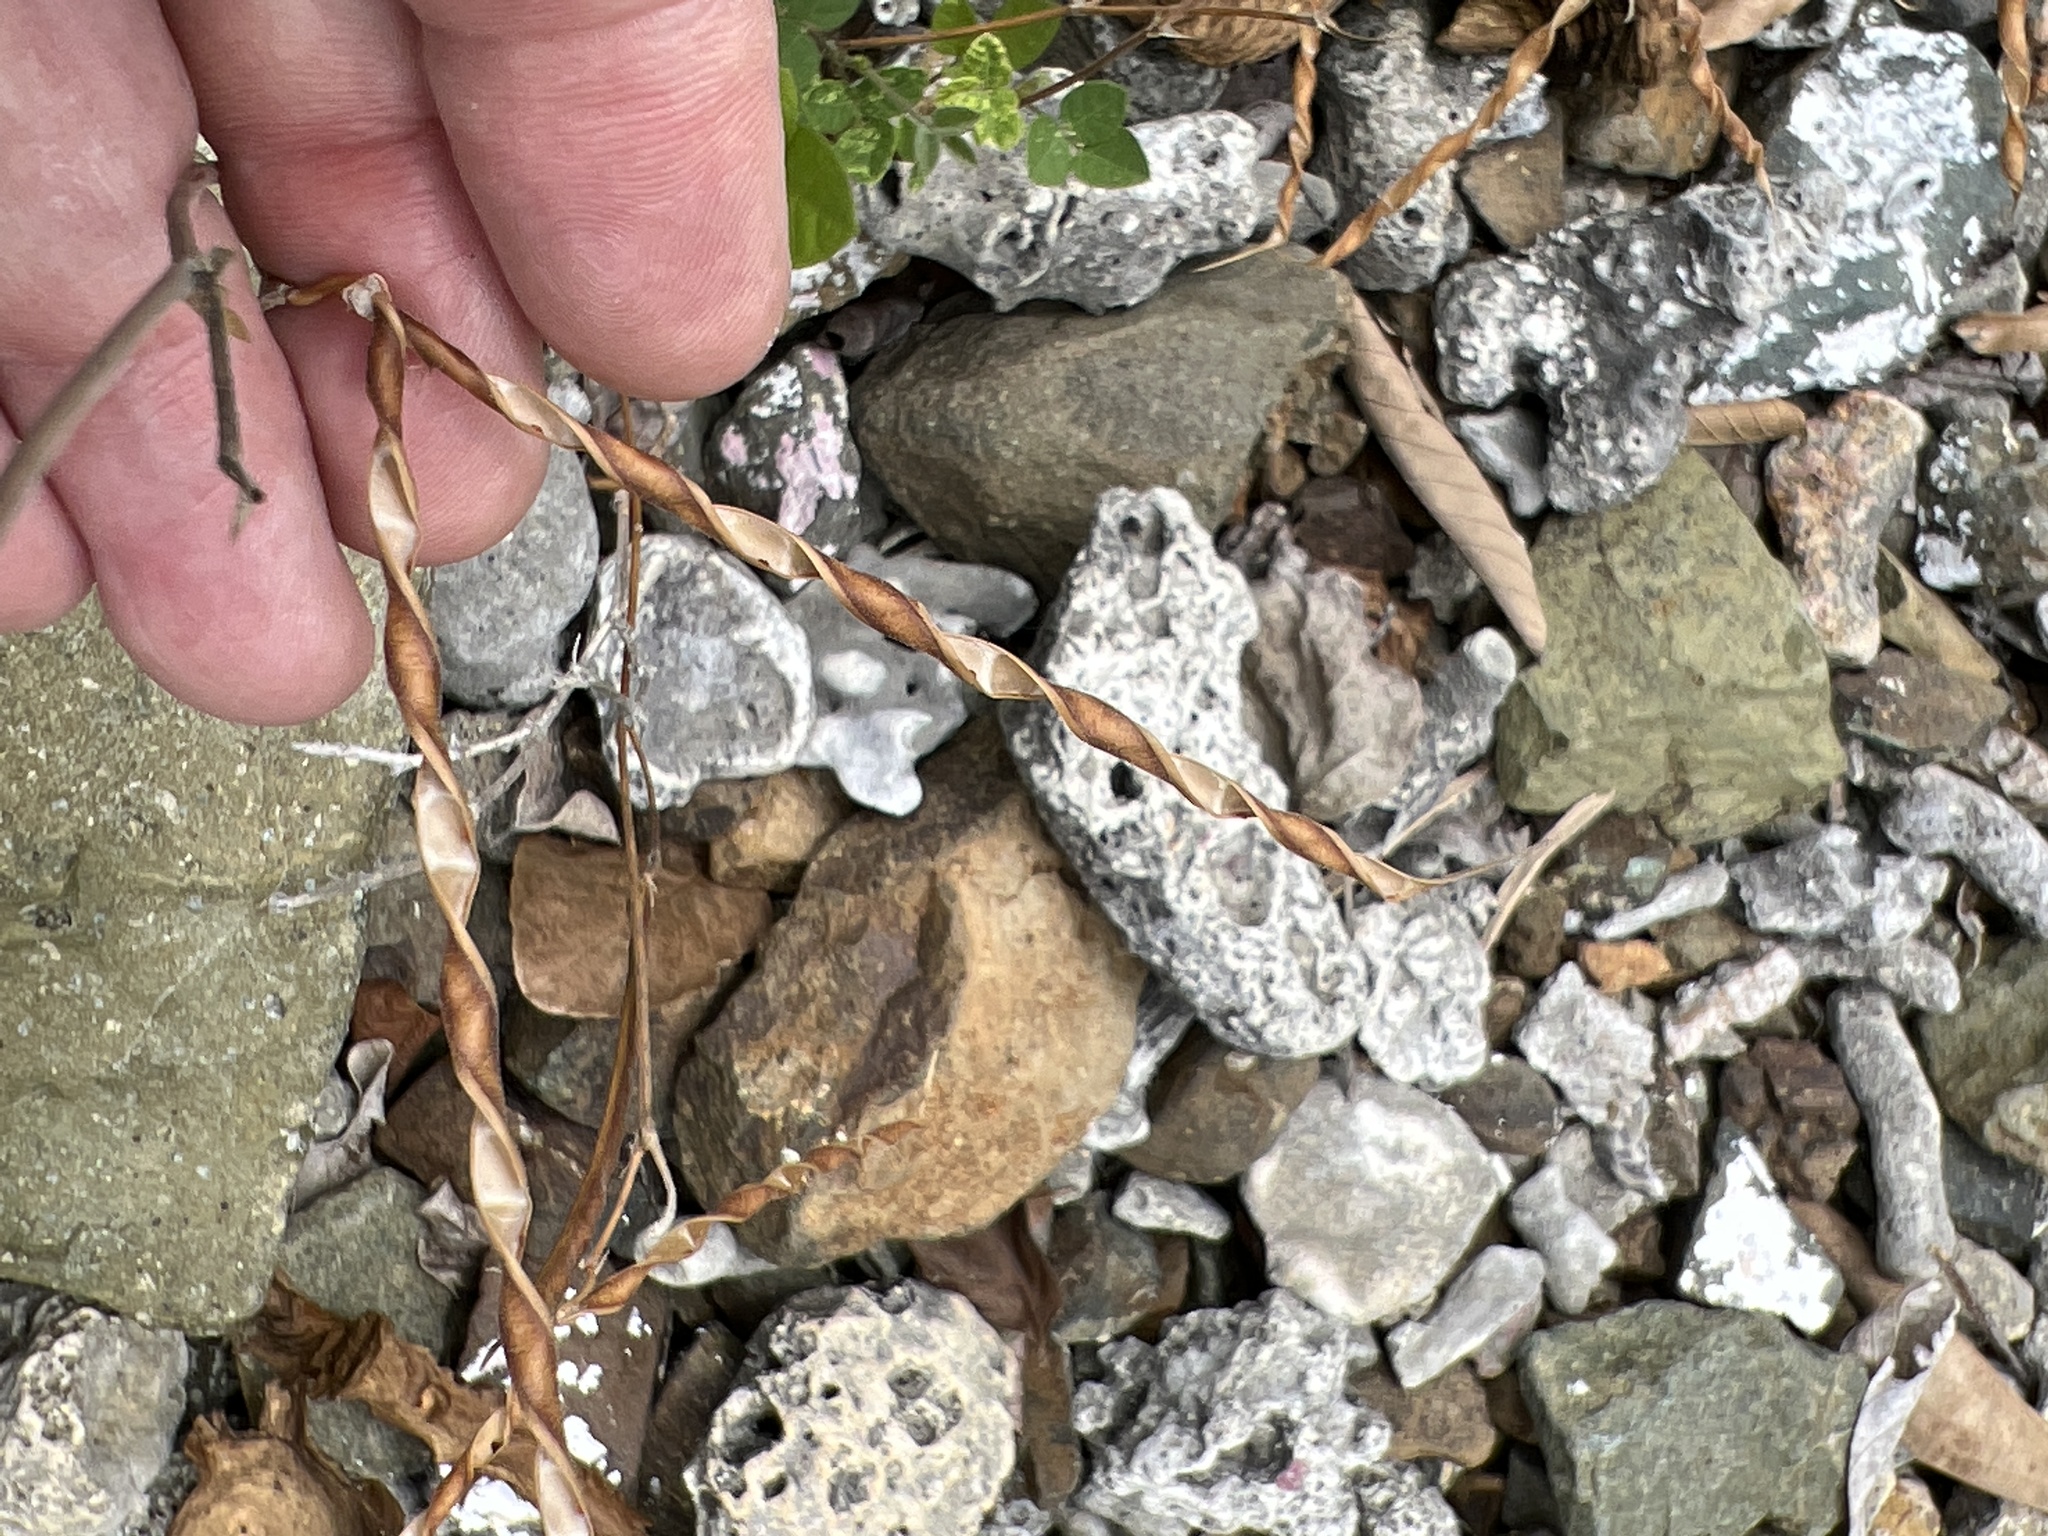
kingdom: Plantae
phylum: Tracheophyta
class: Magnoliopsida
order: Fabales
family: Fabaceae
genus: Centrosema
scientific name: Centrosema pubescens
